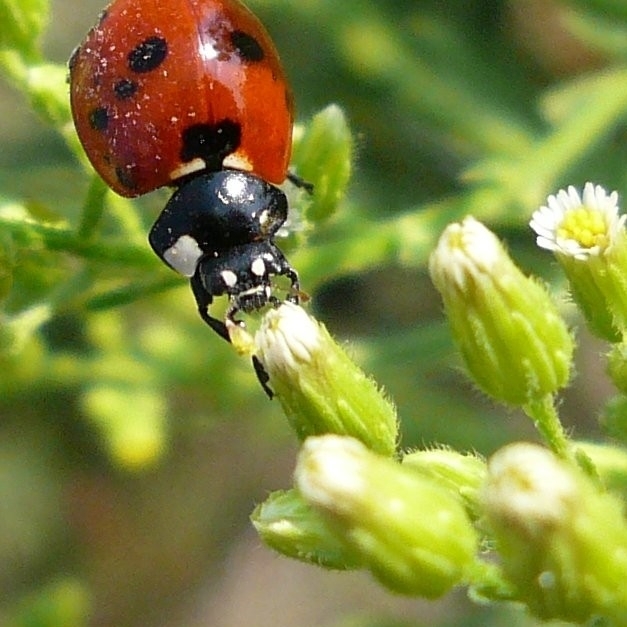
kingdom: Animalia
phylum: Arthropoda
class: Insecta
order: Coleoptera
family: Coccinellidae
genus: Coccinella
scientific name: Coccinella septempunctata
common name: Sevenspotted lady beetle
